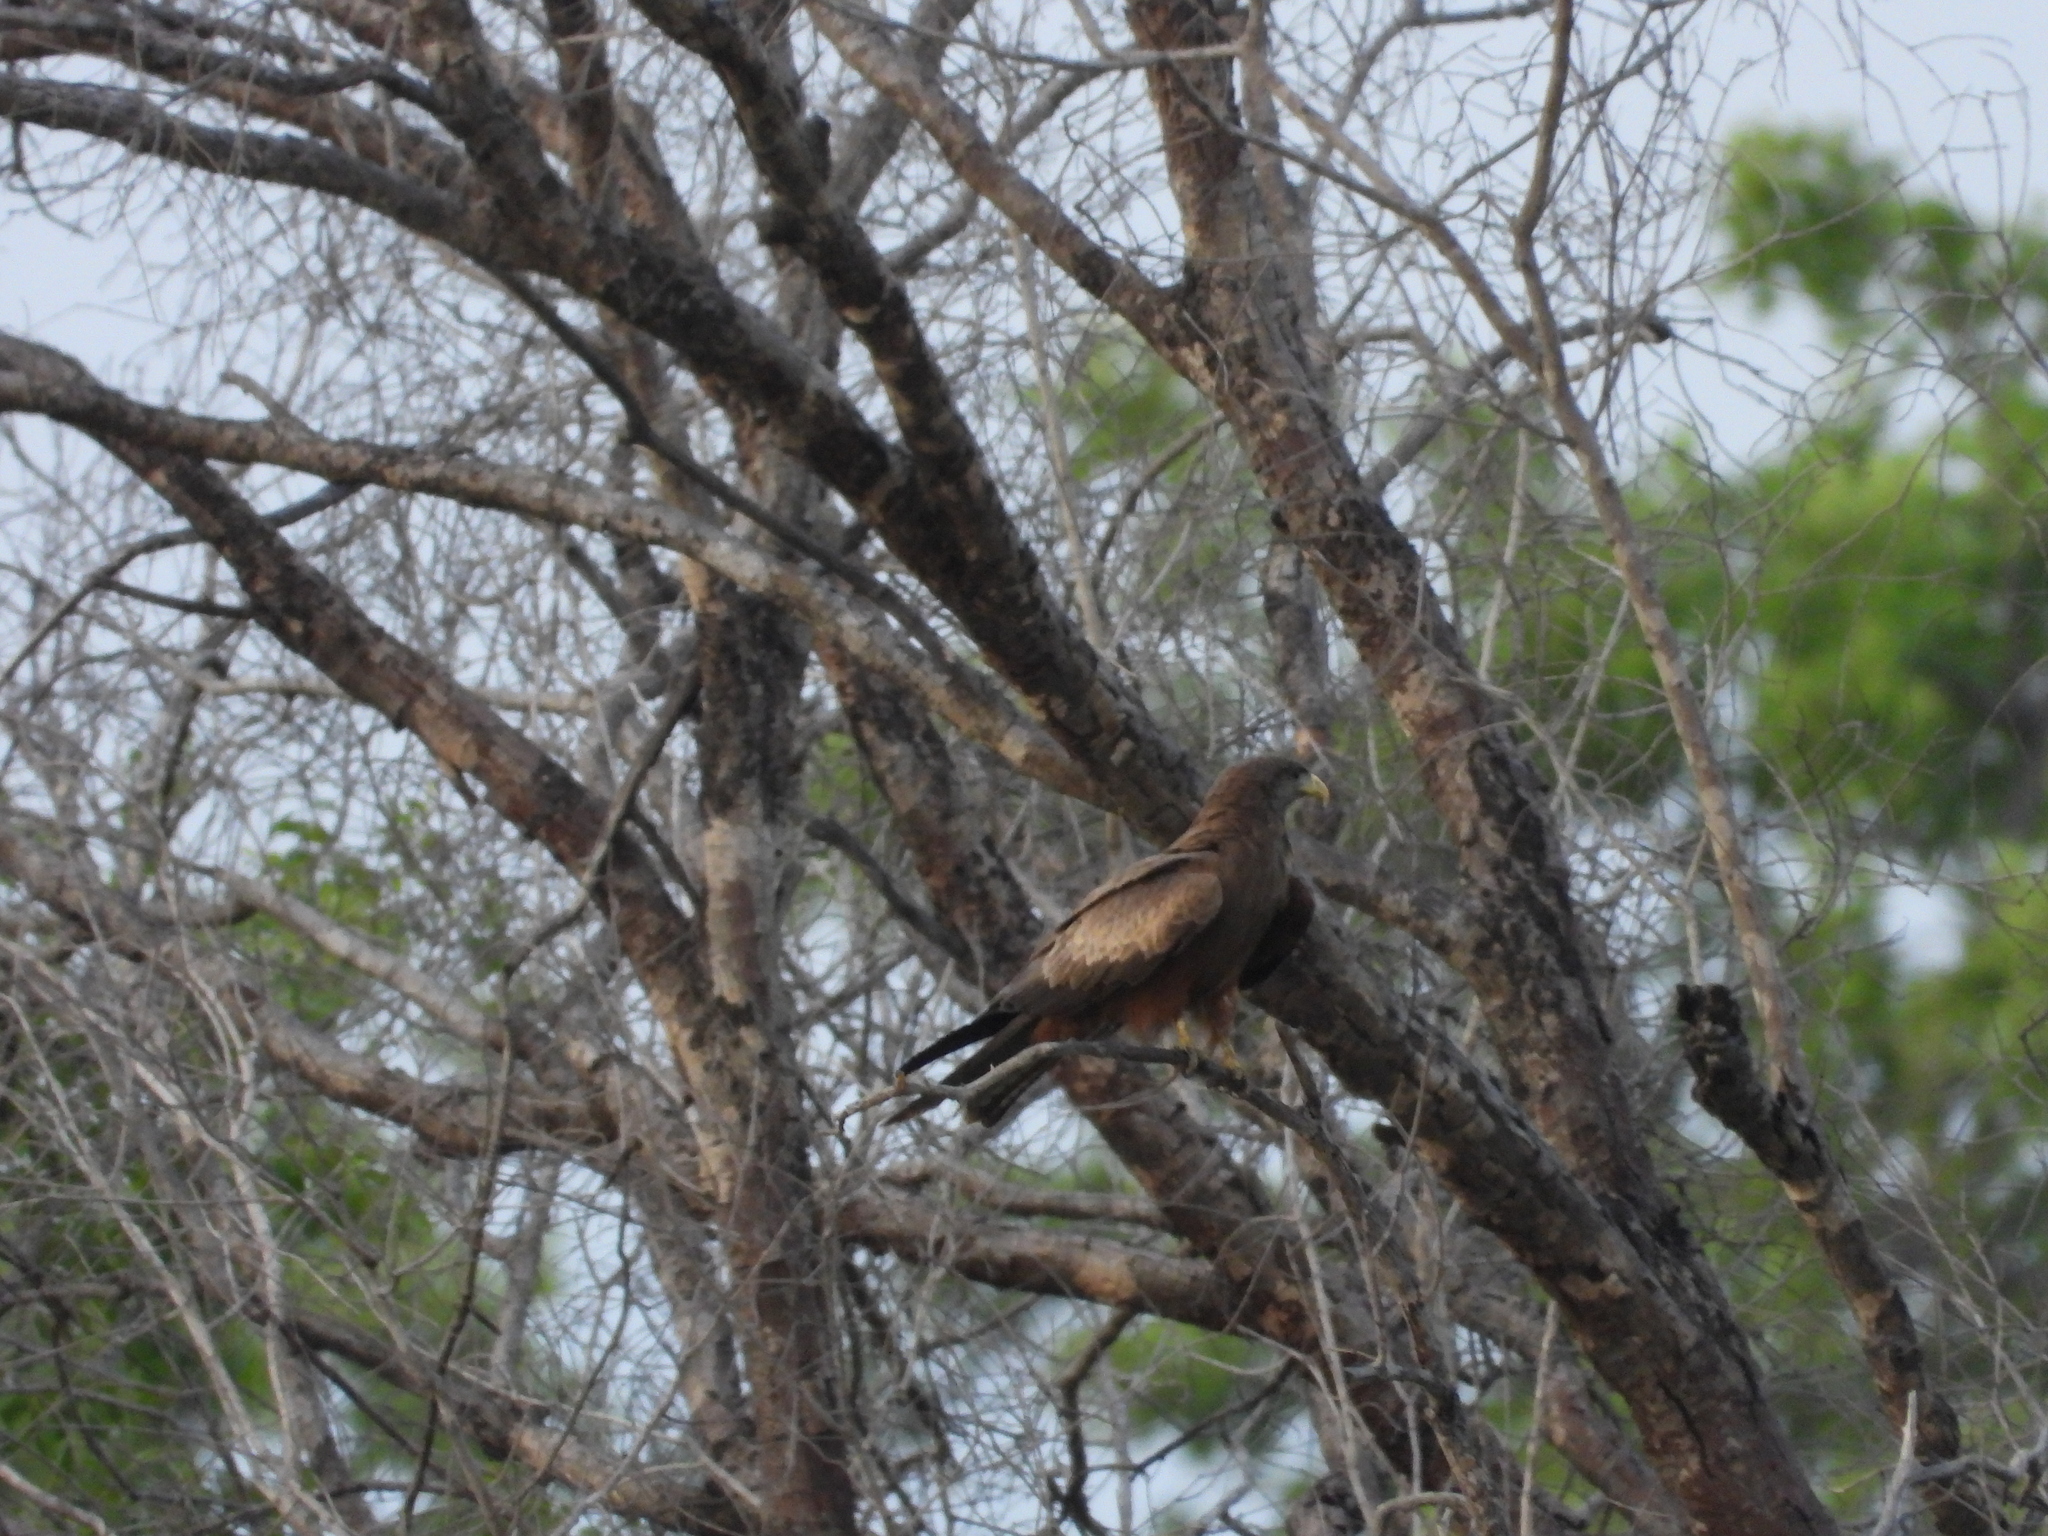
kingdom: Animalia
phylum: Chordata
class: Aves
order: Accipitriformes
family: Accipitridae
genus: Milvus
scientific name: Milvus migrans
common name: Black kite
